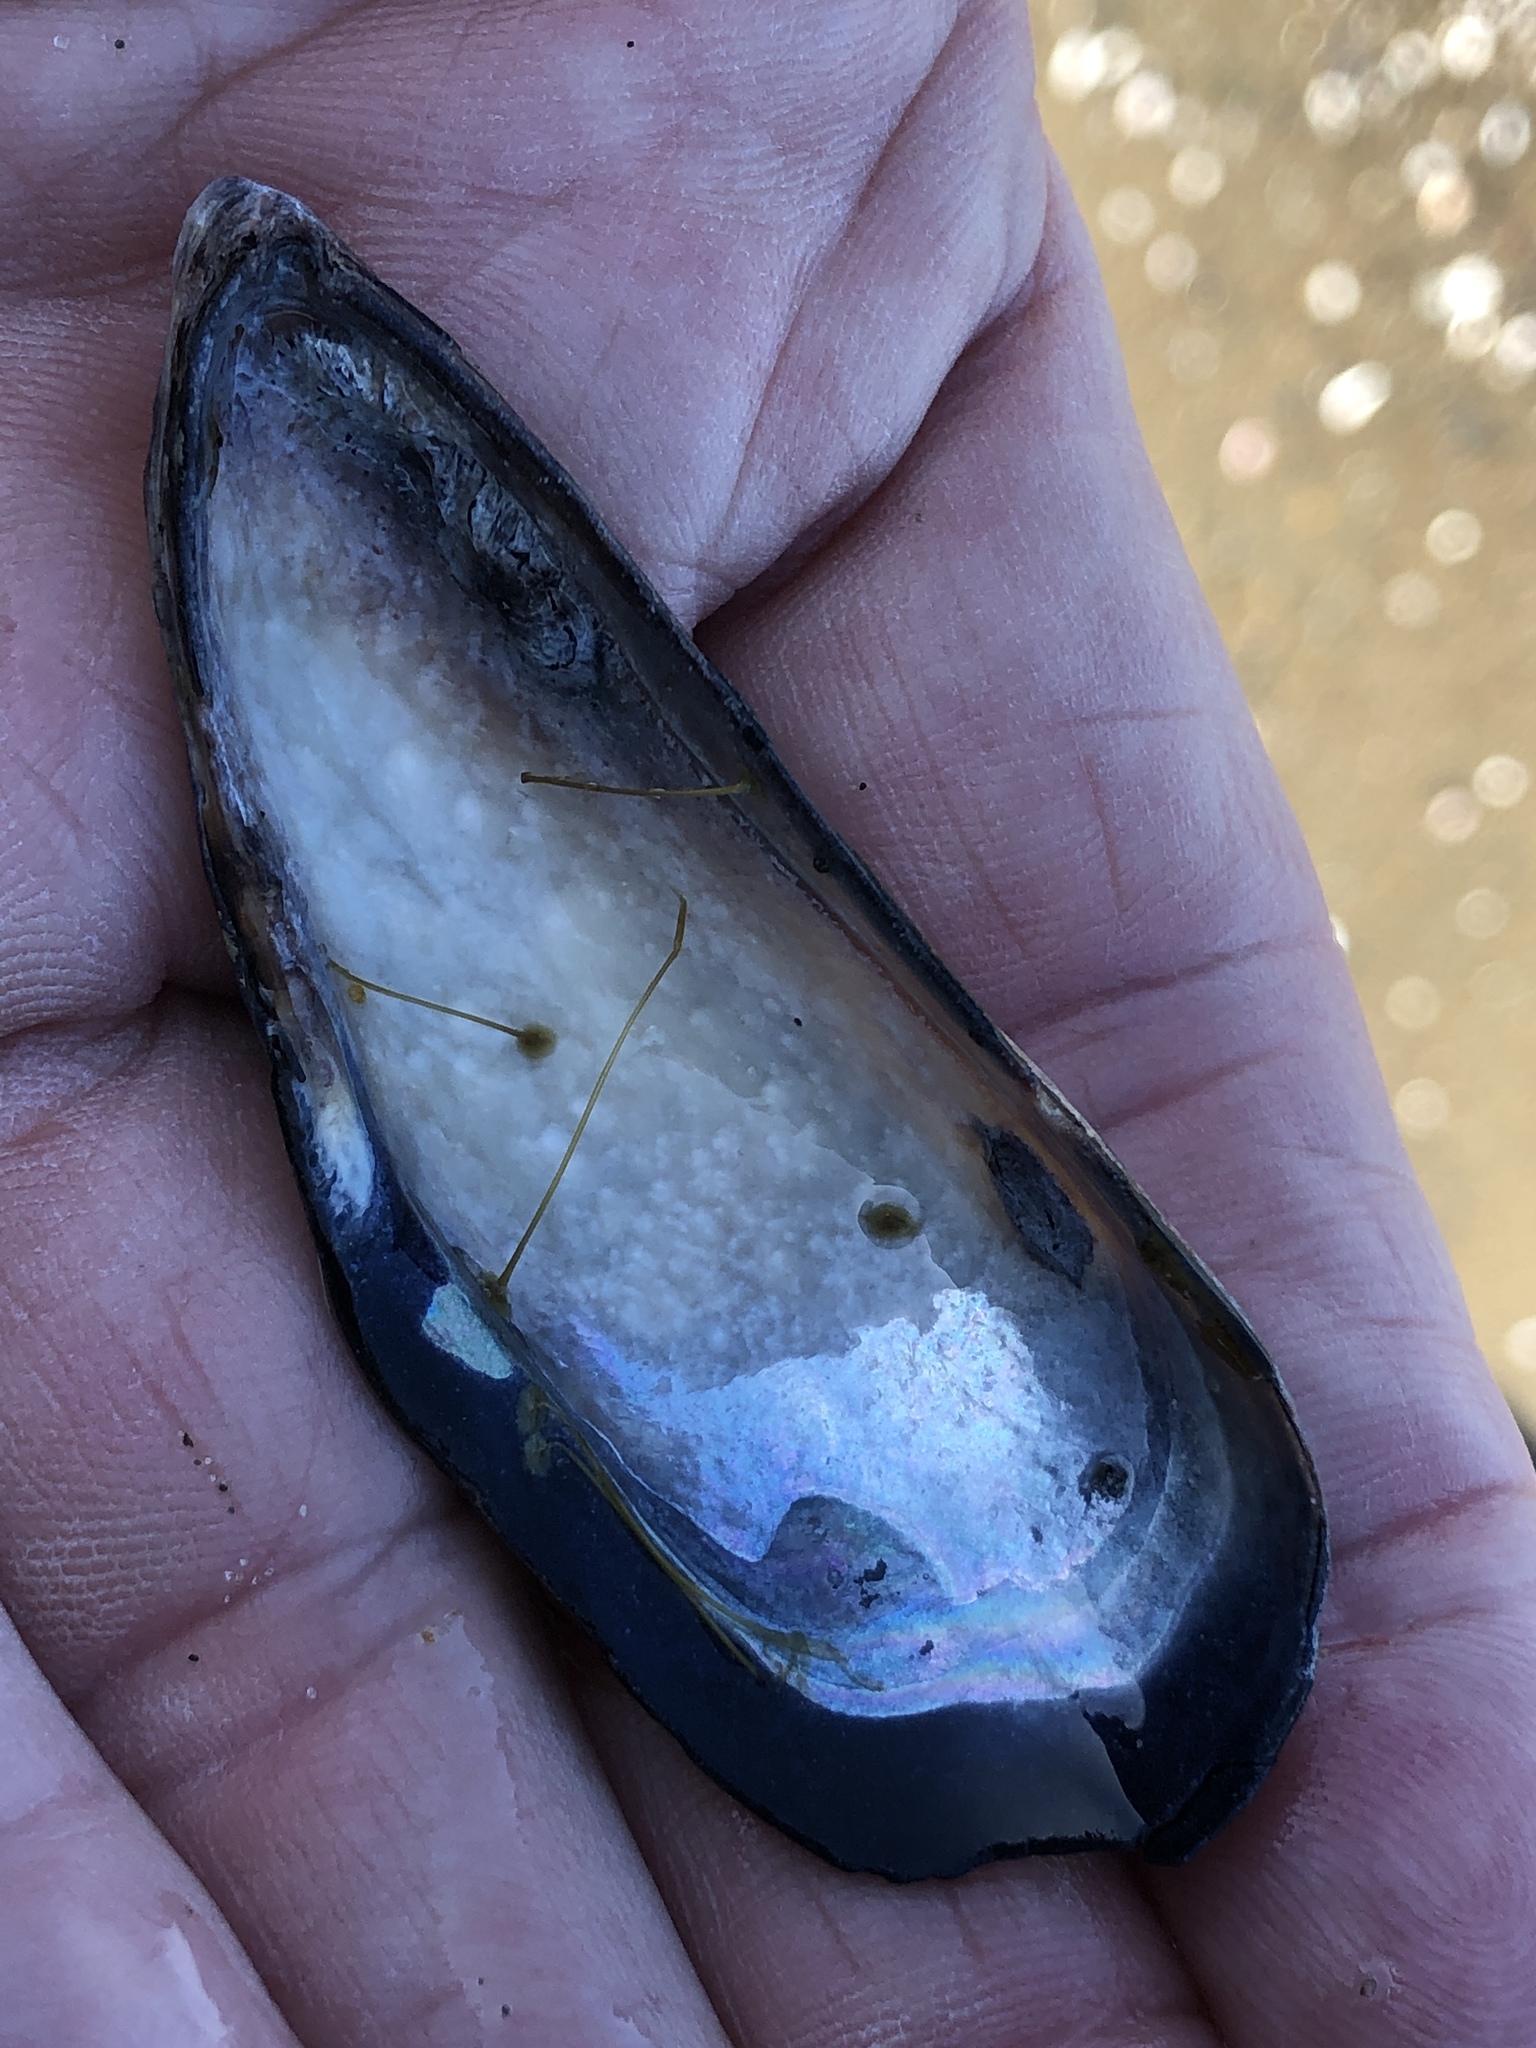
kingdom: Animalia
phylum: Mollusca
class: Bivalvia
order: Mytilida
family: Mytilidae
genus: Mytilus
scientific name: Mytilus californianus
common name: California mussel
